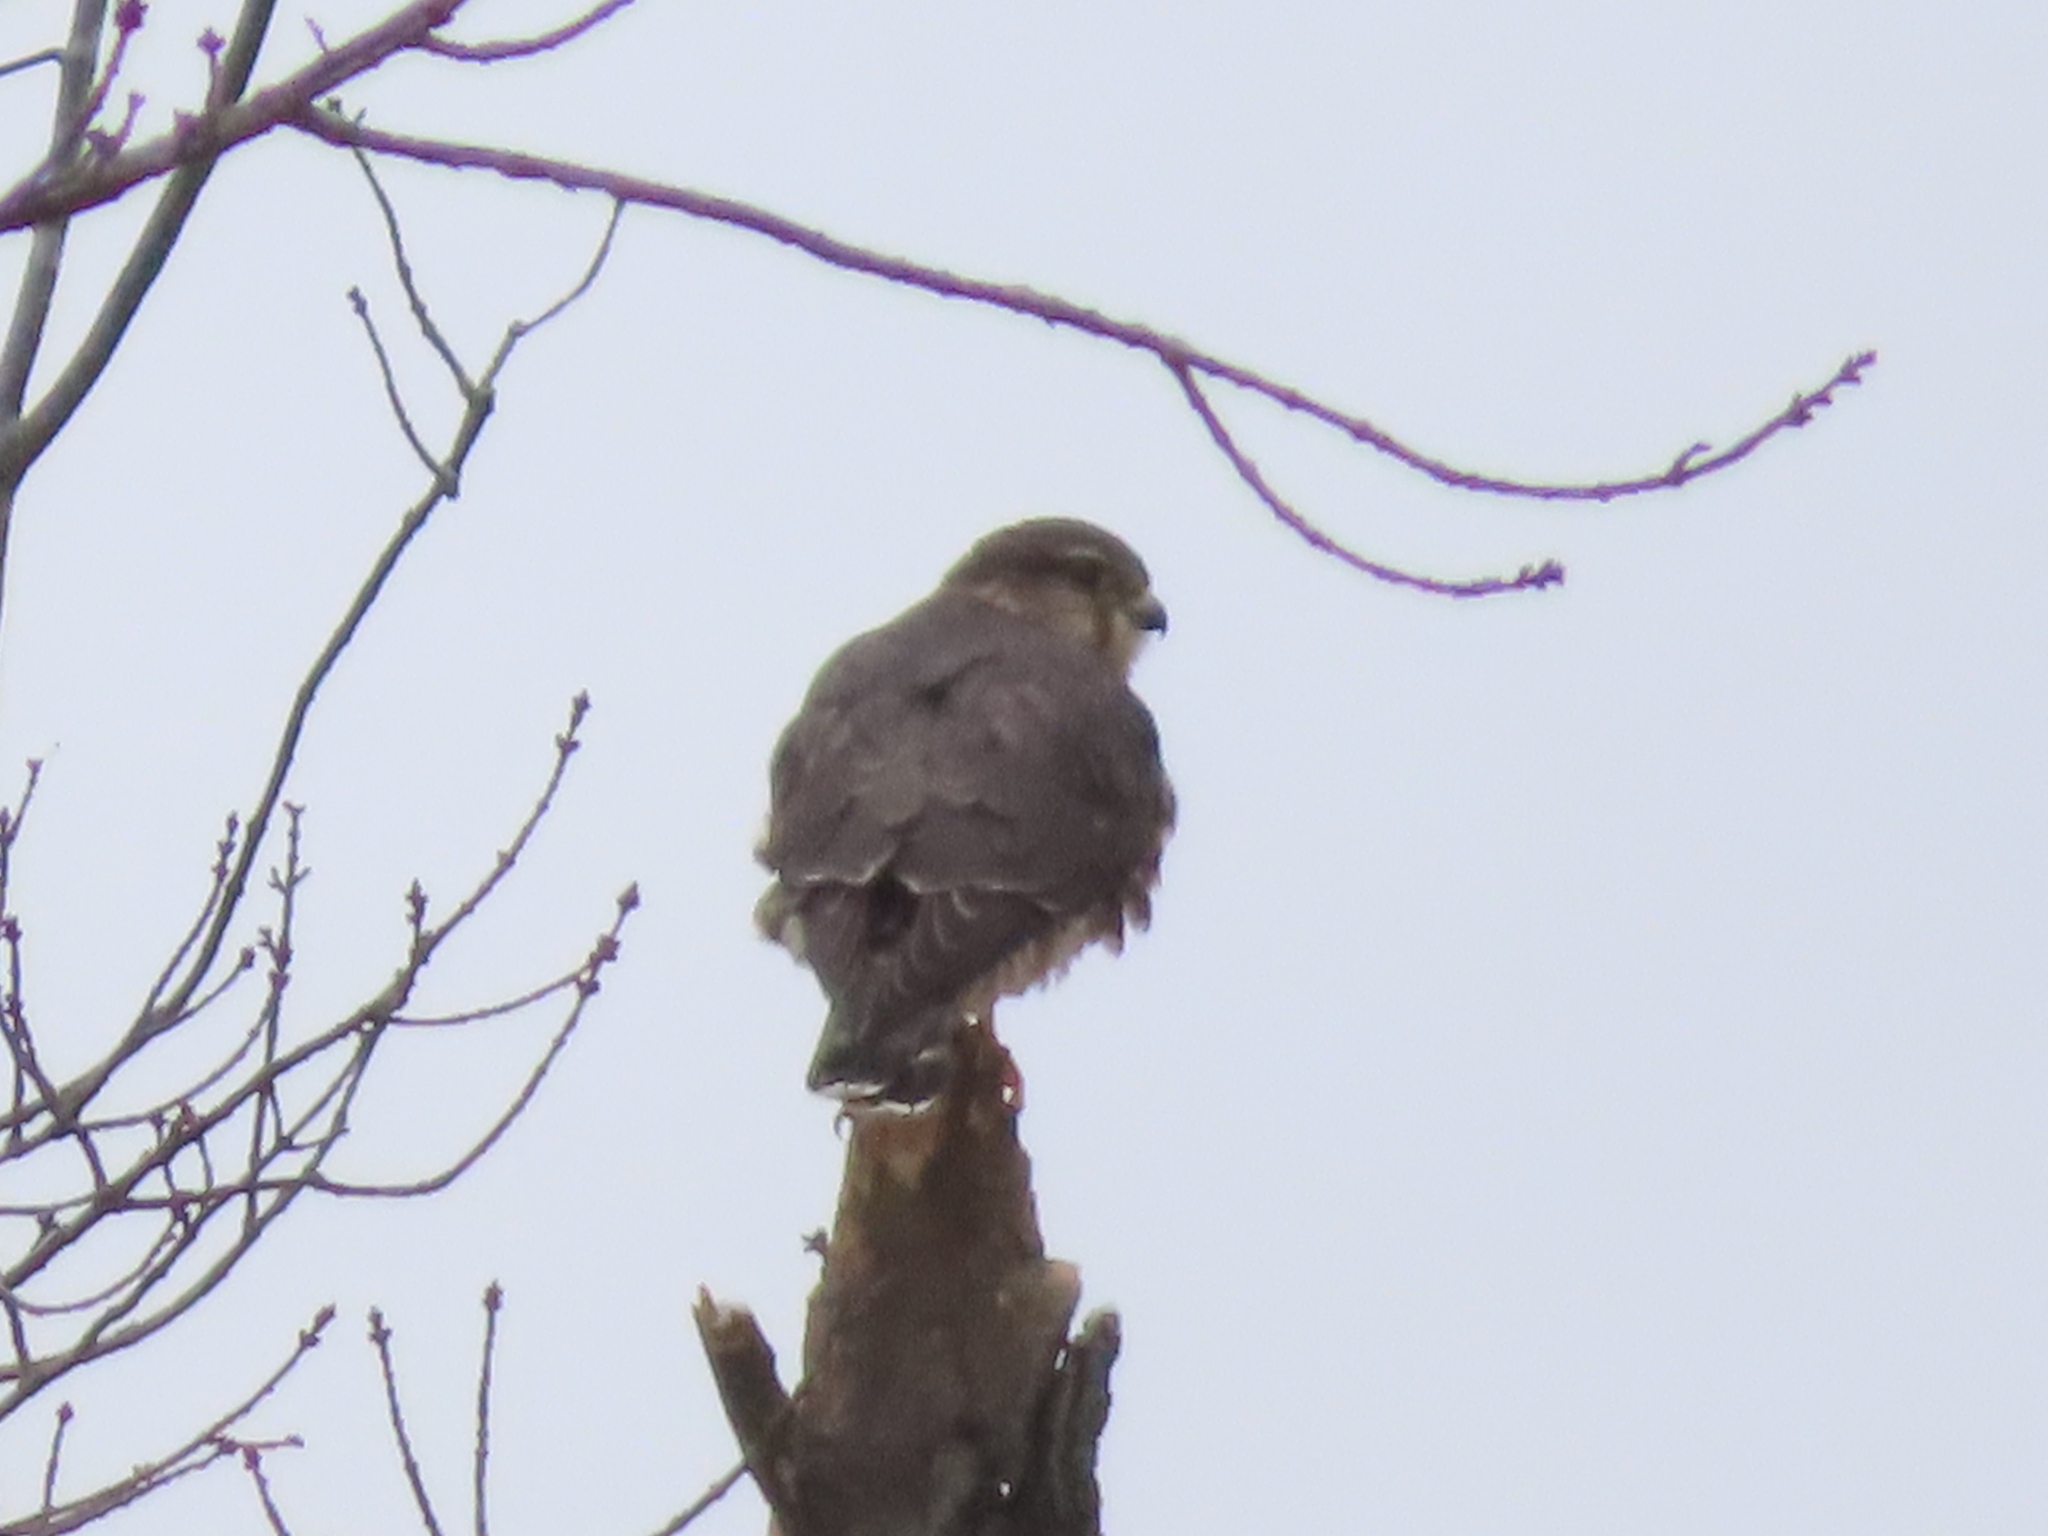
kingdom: Animalia
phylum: Chordata
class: Aves
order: Falconiformes
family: Falconidae
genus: Falco
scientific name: Falco columbarius
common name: Merlin
